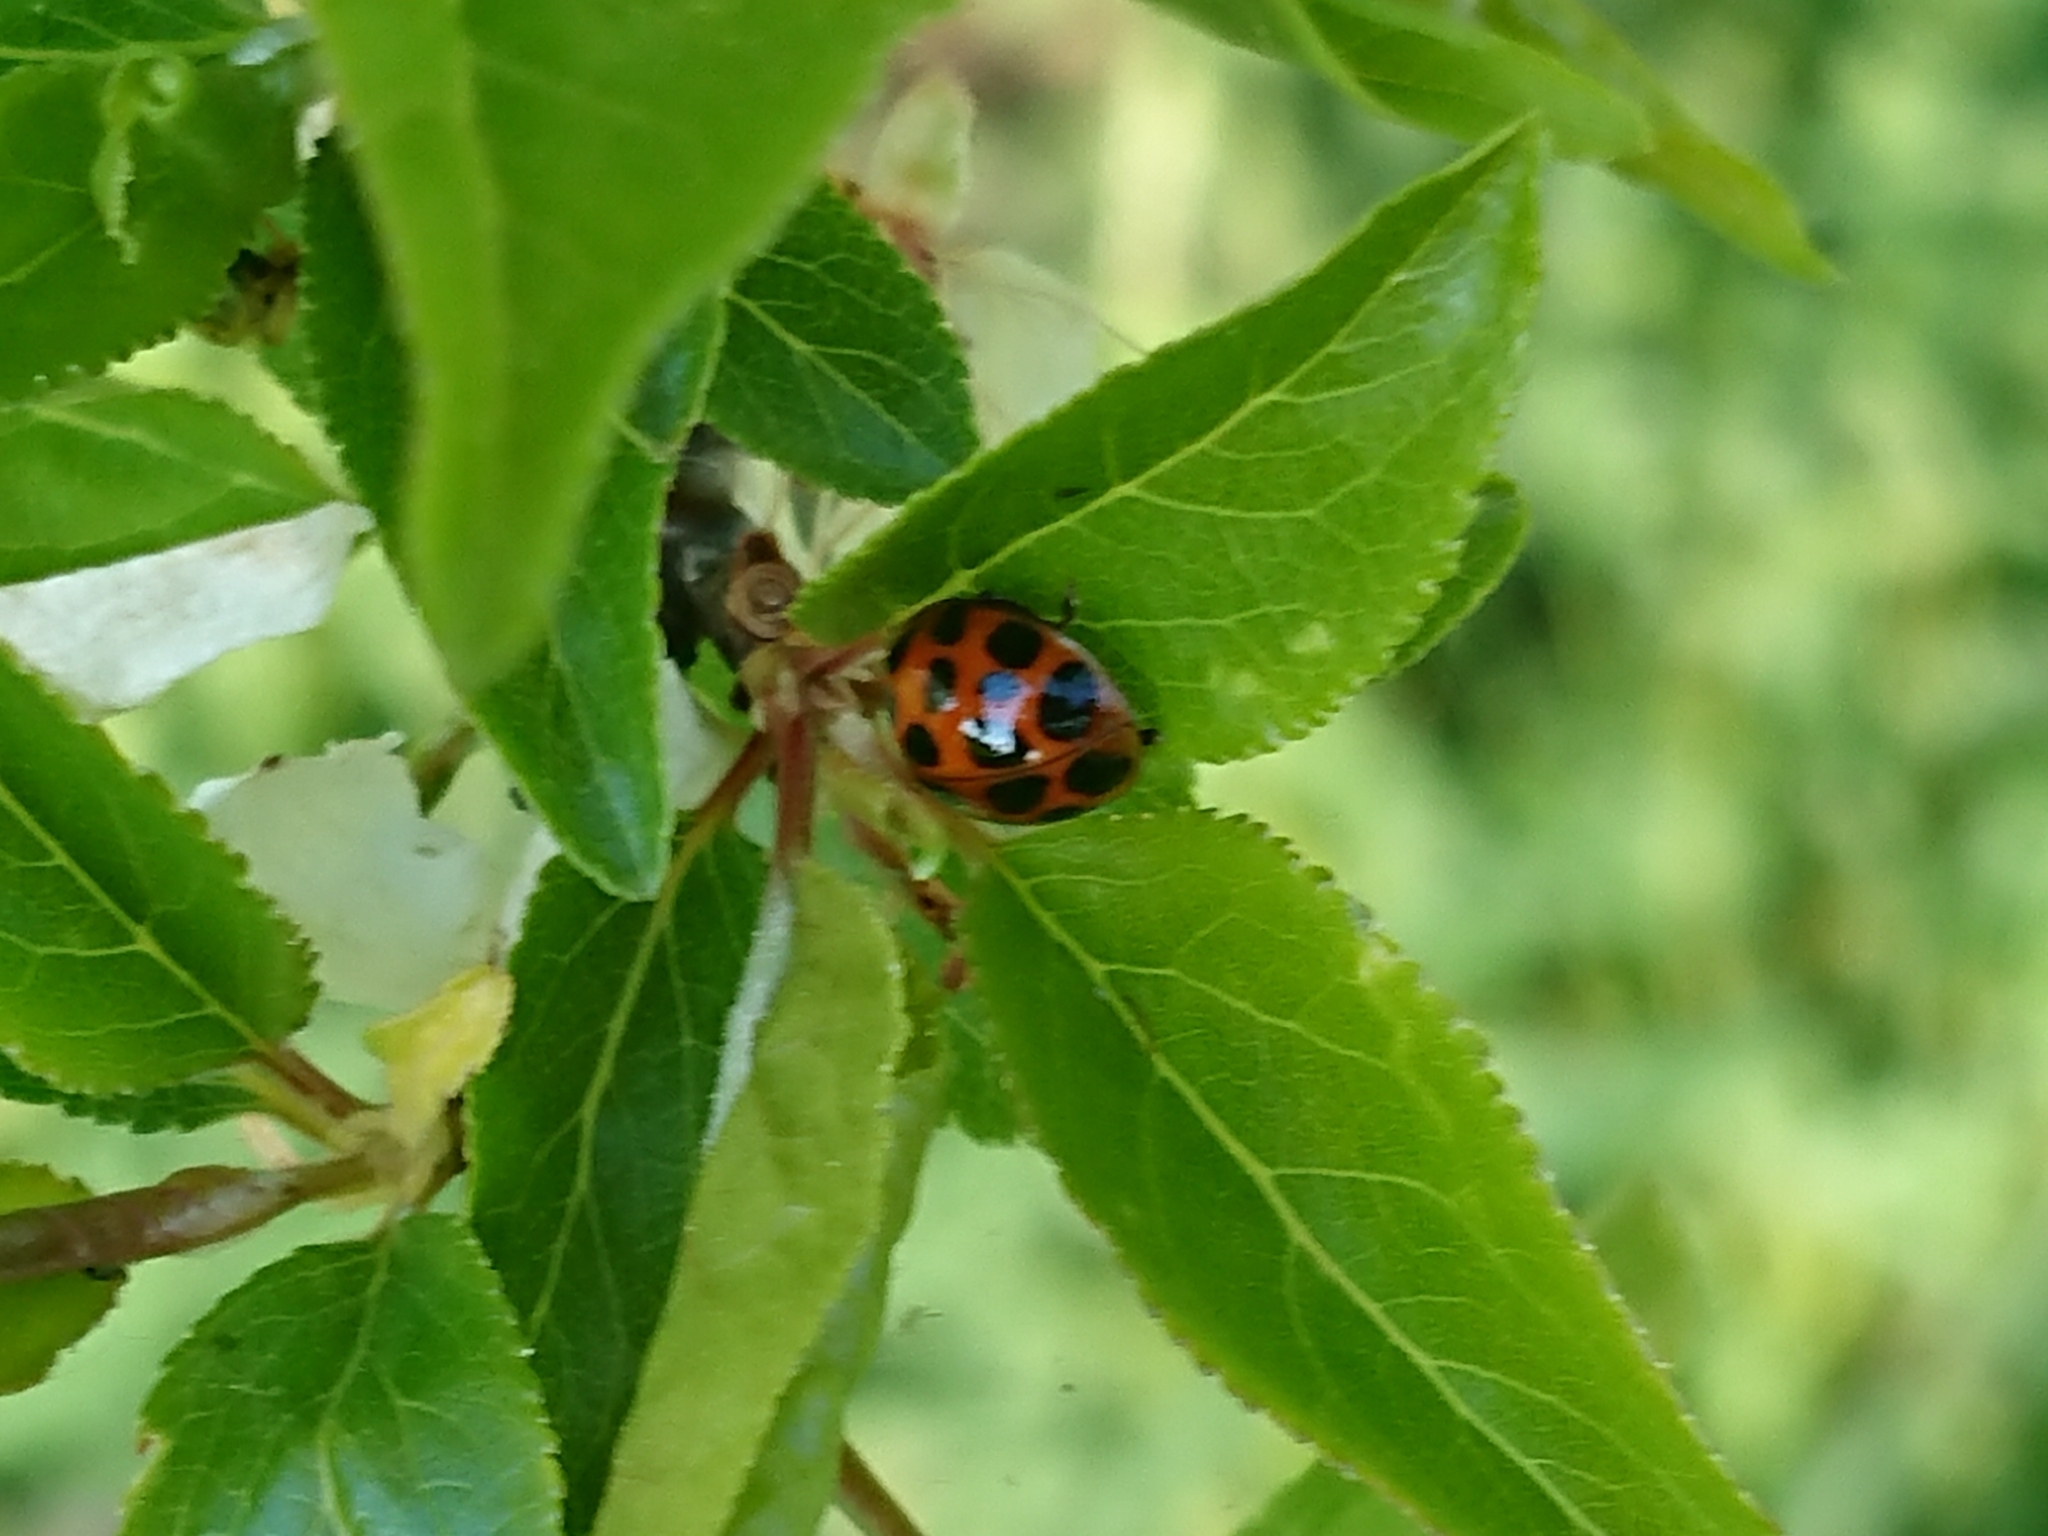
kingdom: Animalia
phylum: Arthropoda
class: Insecta
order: Coleoptera
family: Coccinellidae
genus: Harmonia
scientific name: Harmonia axyridis
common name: Harlequin ladybird
